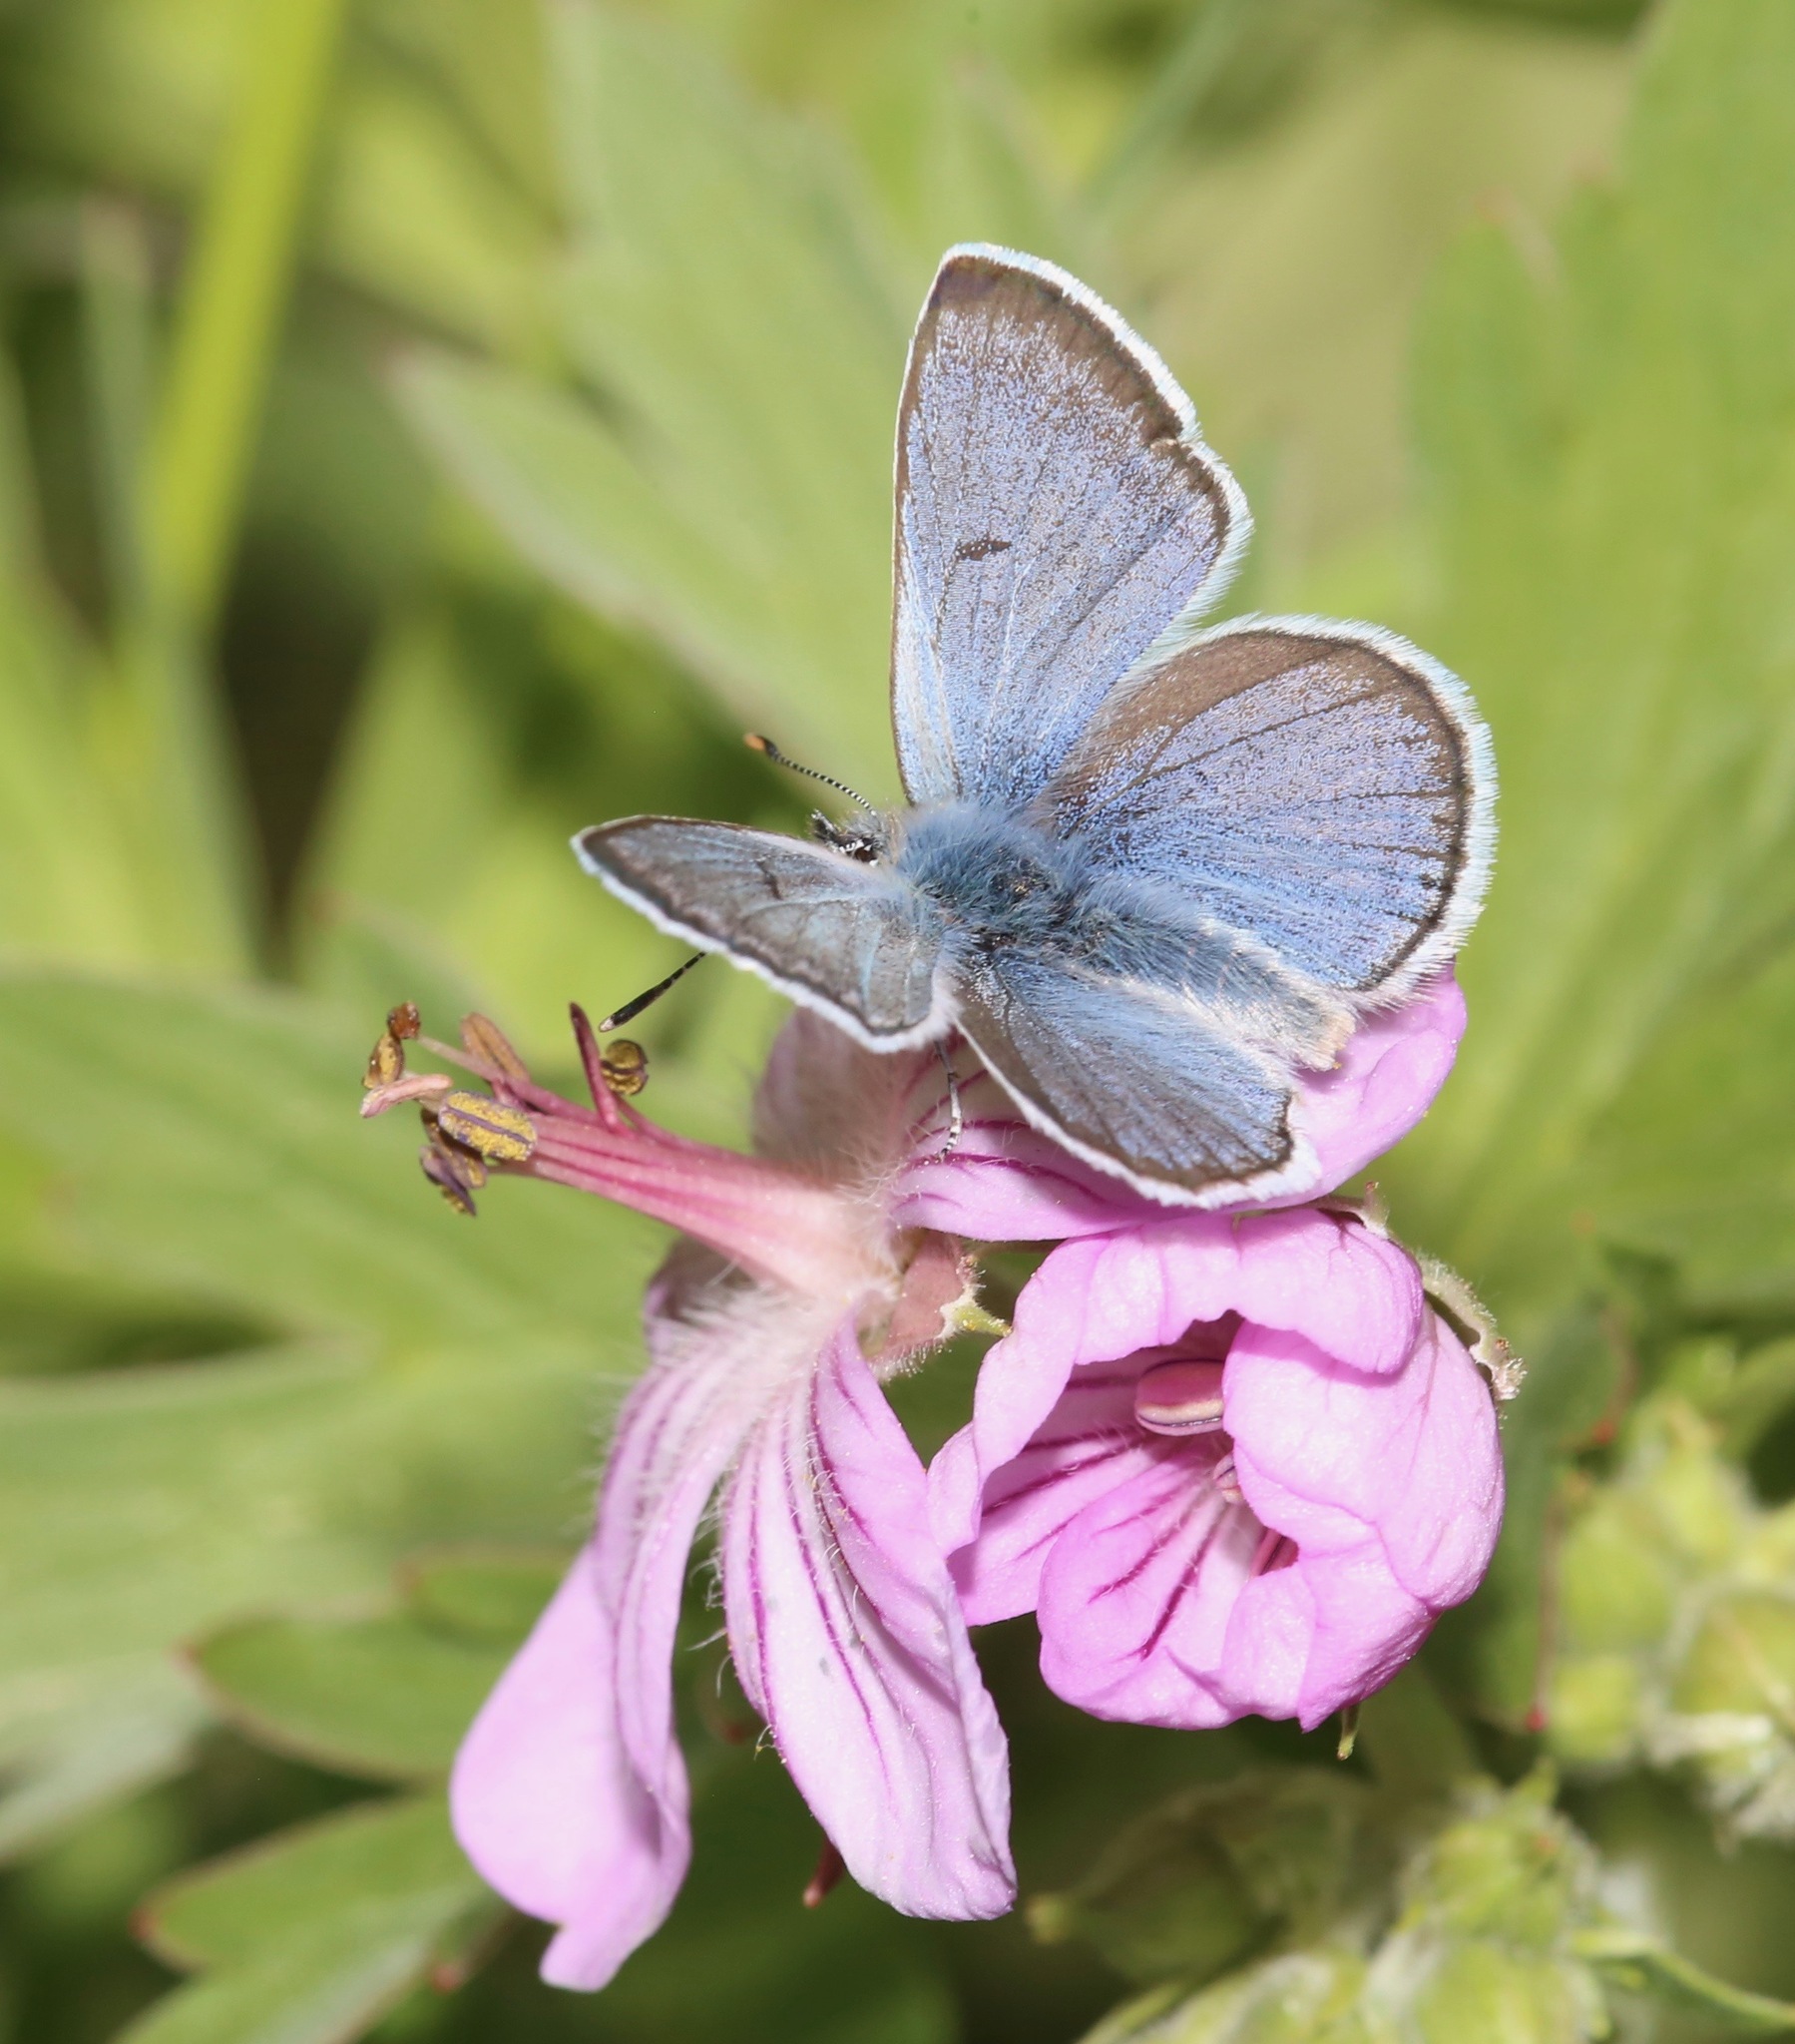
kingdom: Animalia
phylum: Arthropoda
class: Insecta
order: Lepidoptera
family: Lycaenidae
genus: Icaricia
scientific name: Icaricia saepiolus
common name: Greenish blue
